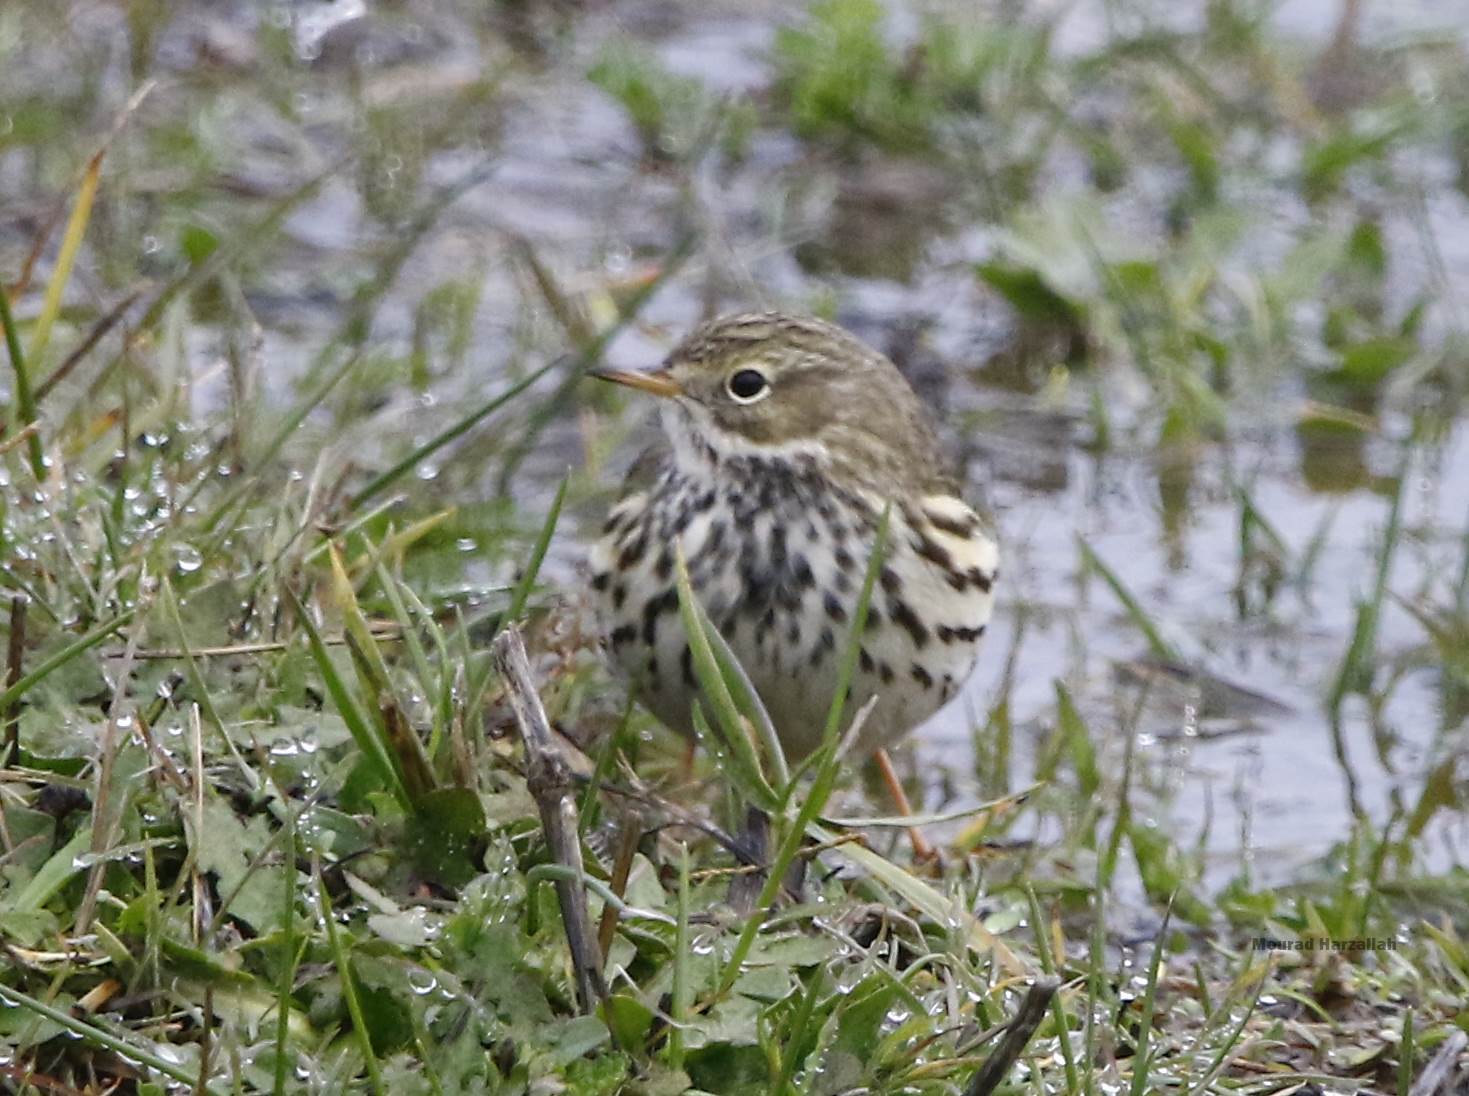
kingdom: Animalia
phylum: Chordata
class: Aves
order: Passeriformes
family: Motacillidae
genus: Anthus
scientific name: Anthus pratensis
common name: Meadow pipit
